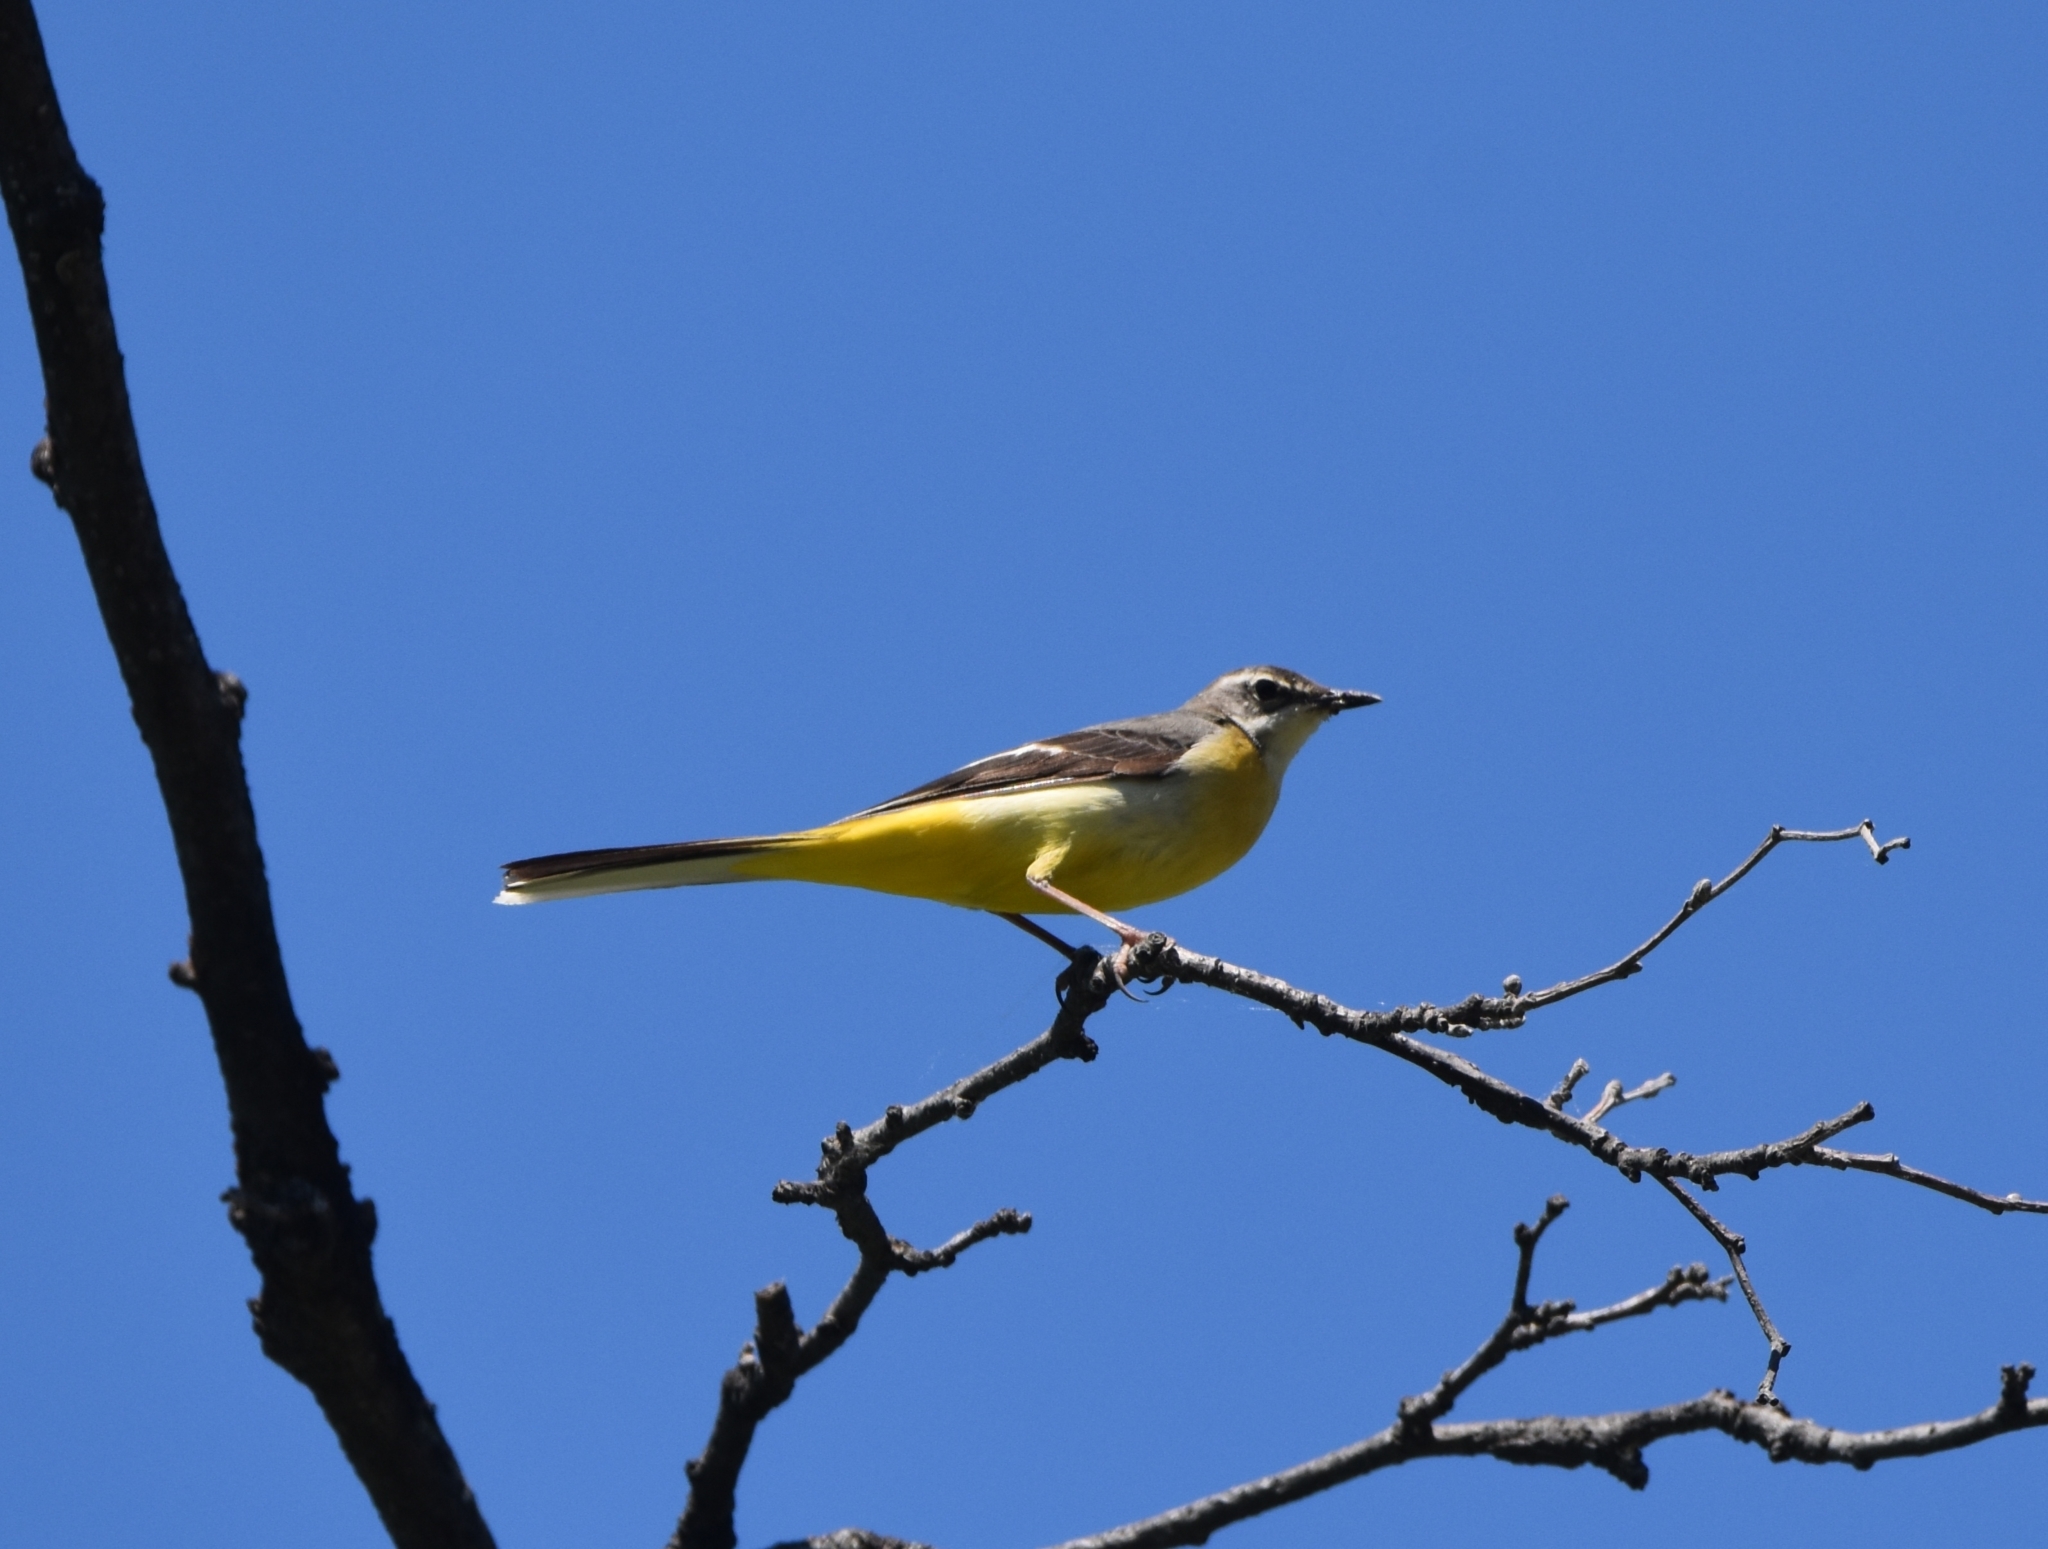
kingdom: Animalia
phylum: Chordata
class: Aves
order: Passeriformes
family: Motacillidae
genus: Motacilla
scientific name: Motacilla cinerea
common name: Grey wagtail
